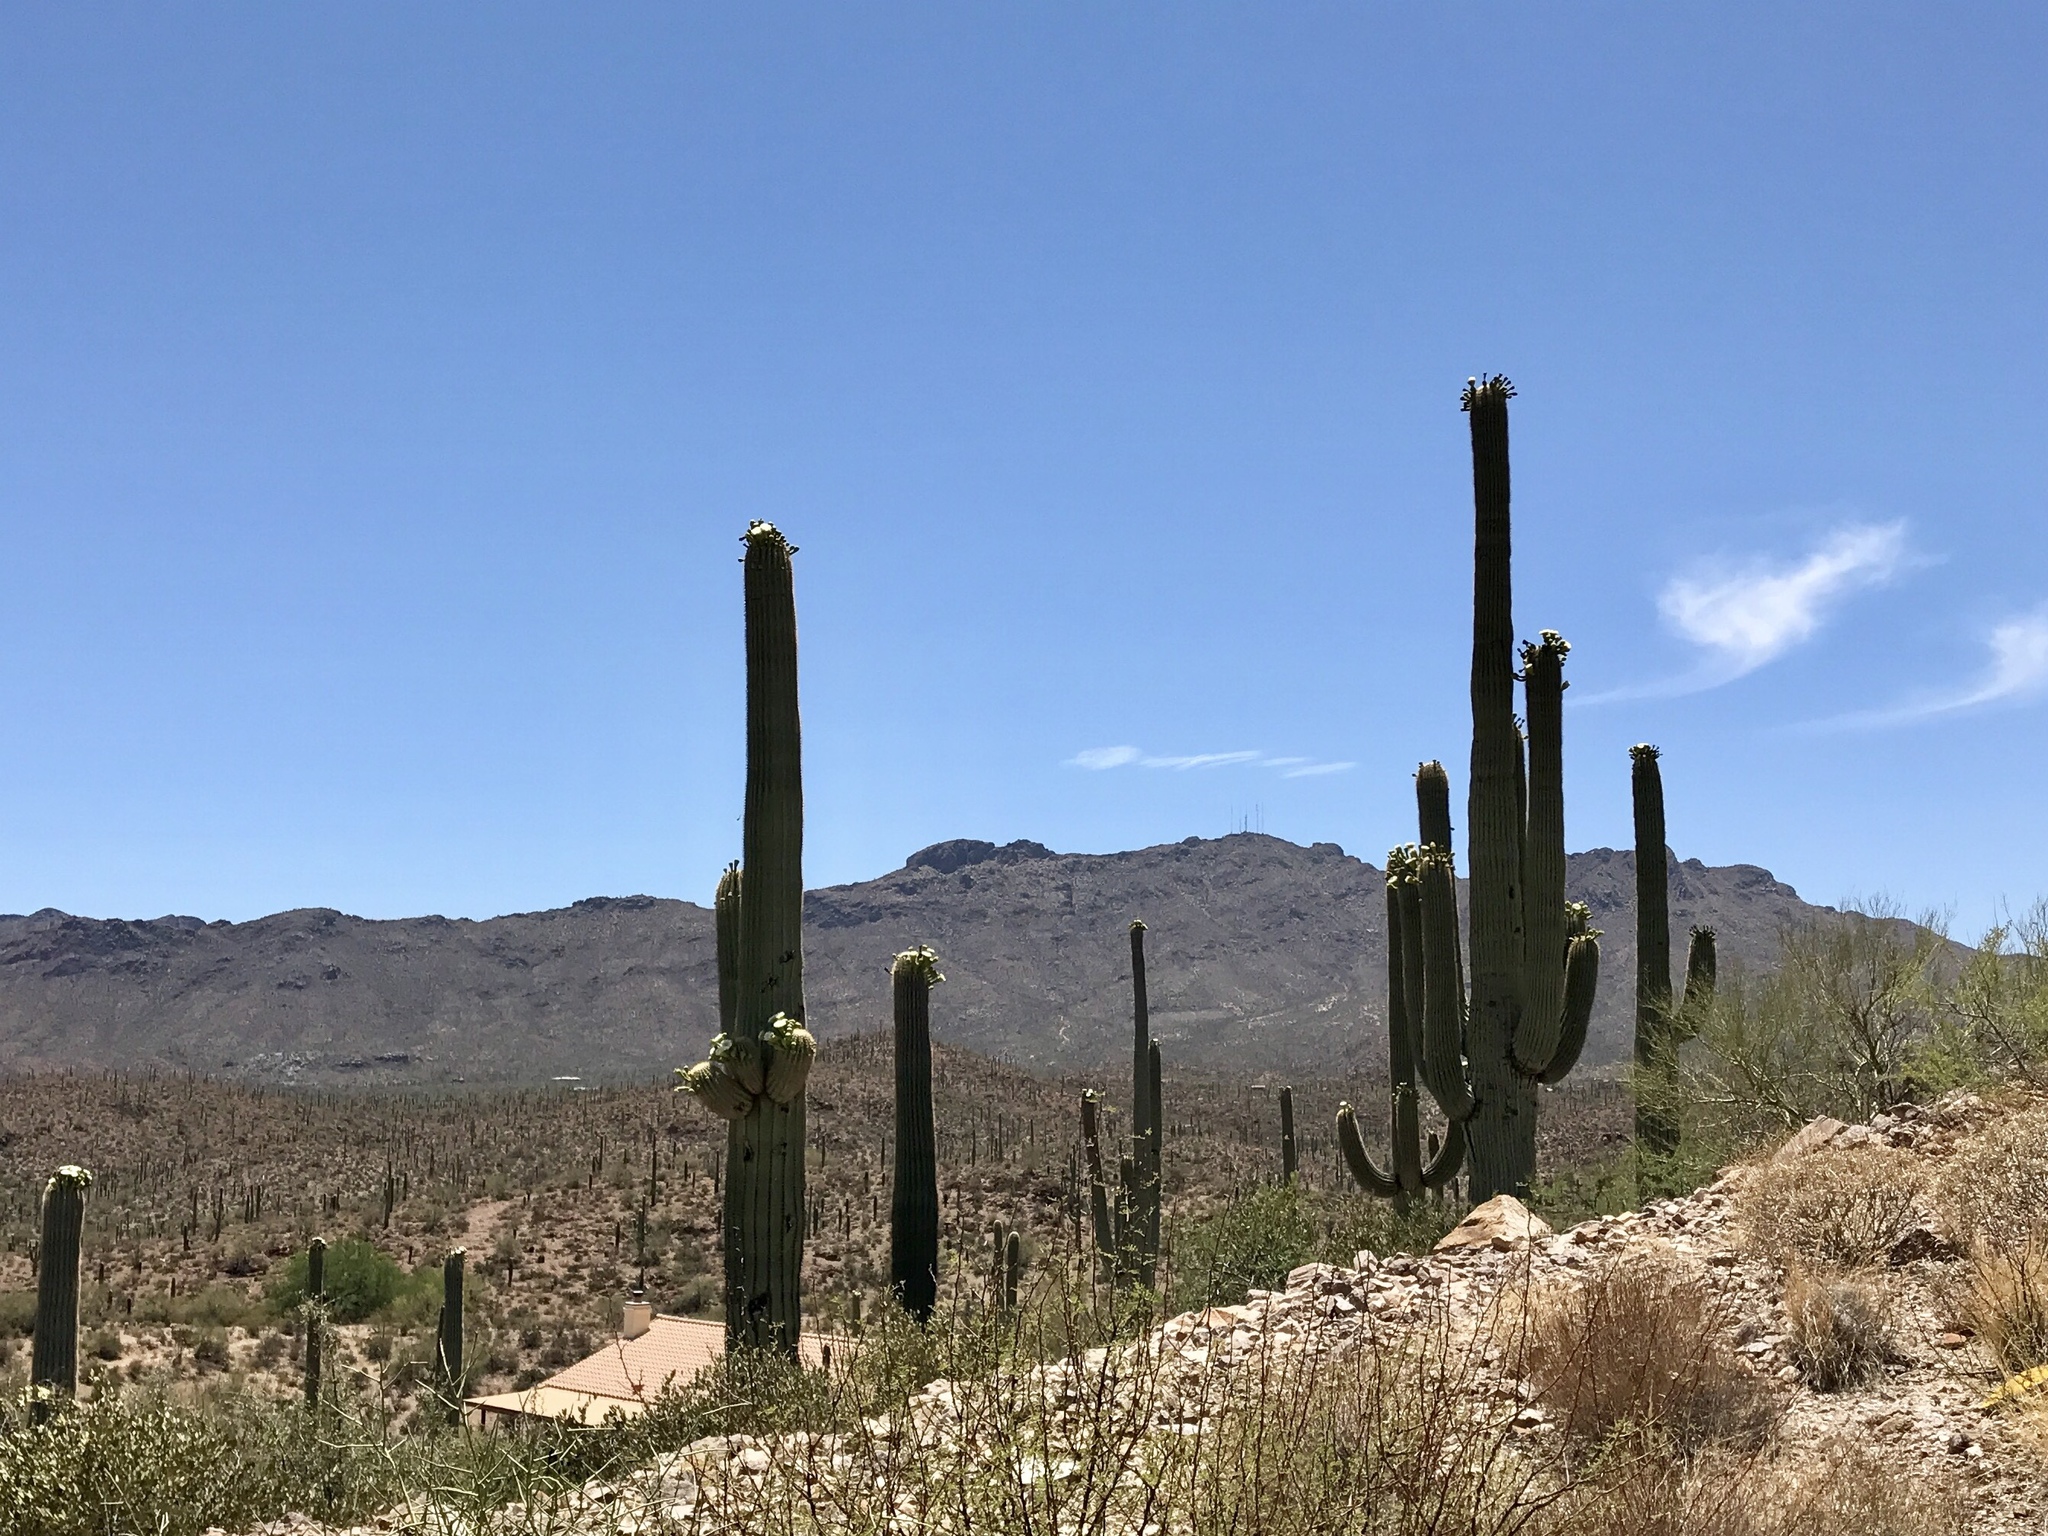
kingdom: Plantae
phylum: Tracheophyta
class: Magnoliopsida
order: Caryophyllales
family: Cactaceae
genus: Carnegiea
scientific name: Carnegiea gigantea
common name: Saguaro
